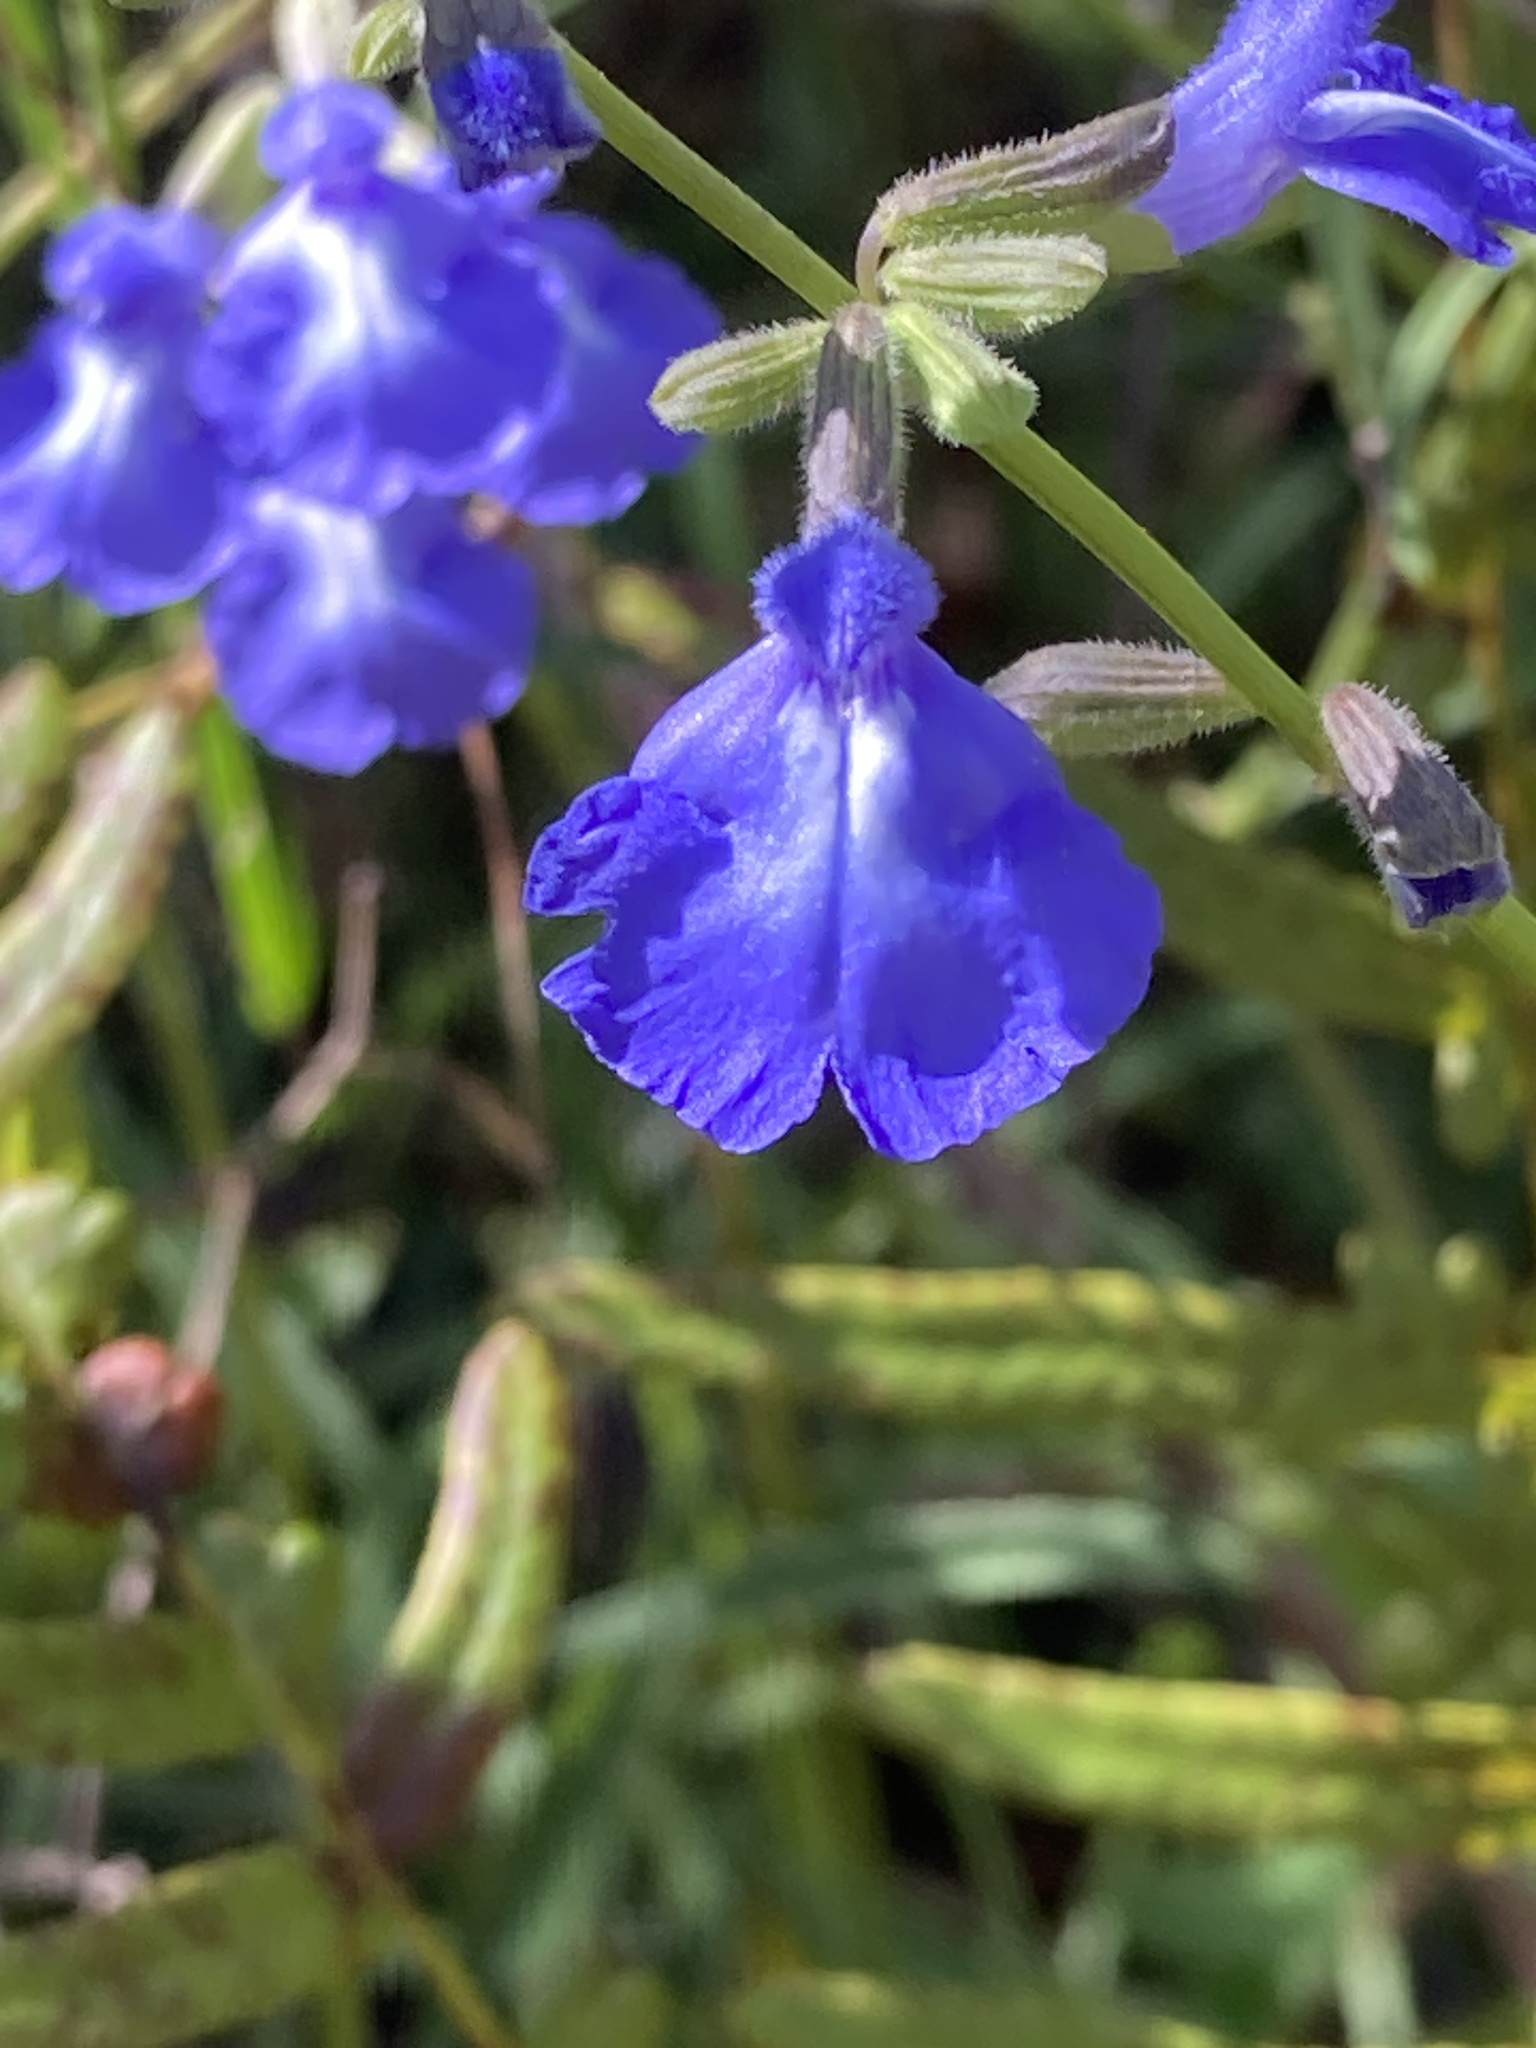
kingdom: Plantae
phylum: Tracheophyta
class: Magnoliopsida
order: Lamiales
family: Lamiaceae
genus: Salvia
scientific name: Salvia azurea
